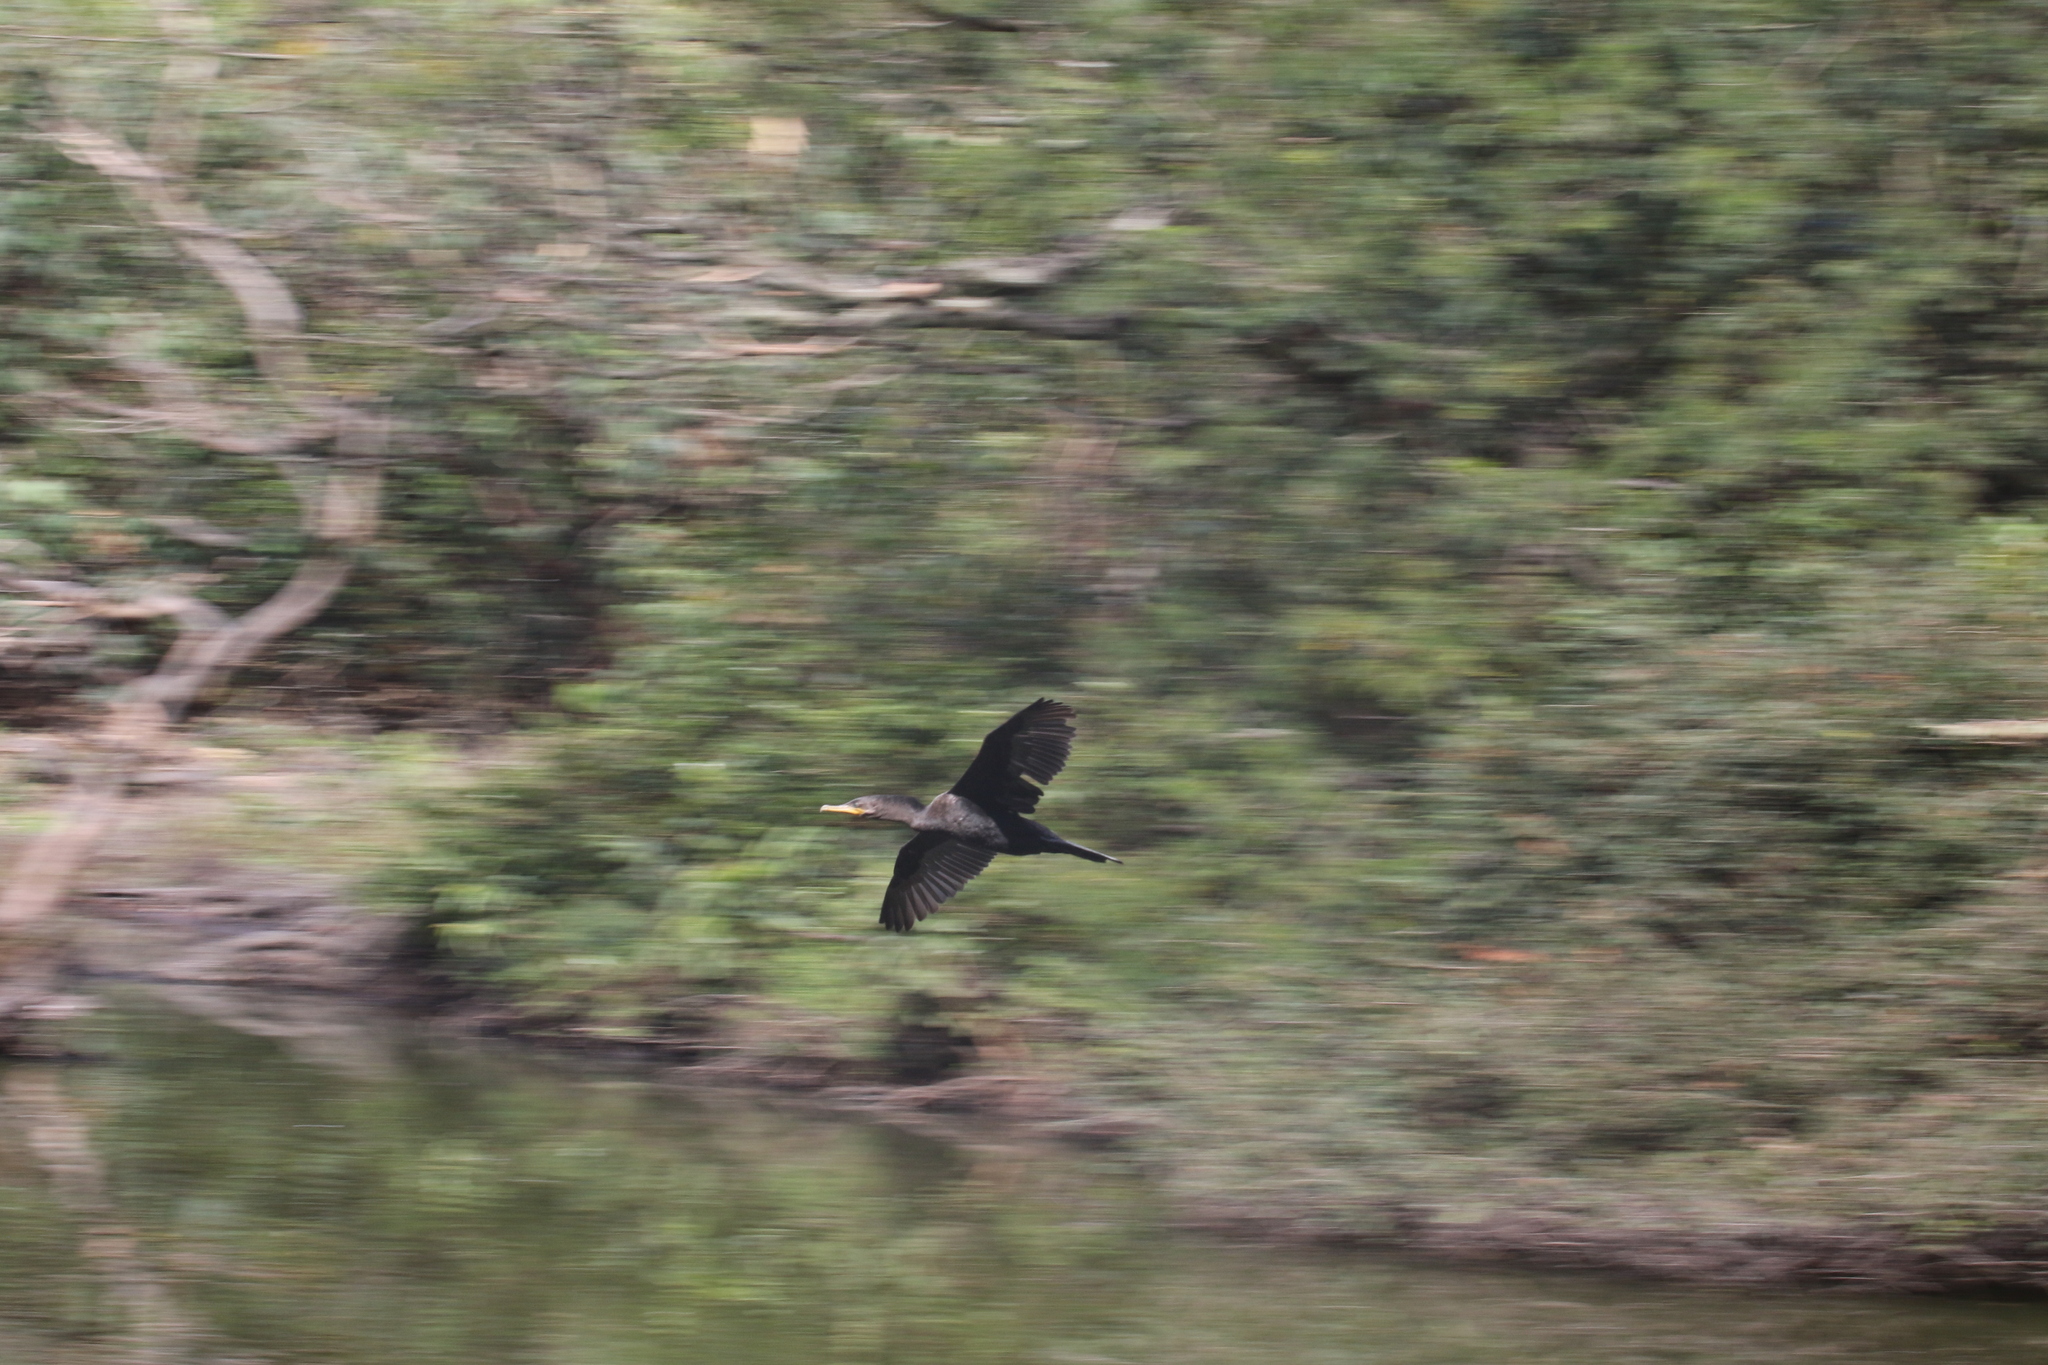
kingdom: Animalia
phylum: Chordata
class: Aves
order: Suliformes
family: Phalacrocoracidae
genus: Phalacrocorax
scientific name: Phalacrocorax brasilianus
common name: Neotropic cormorant
